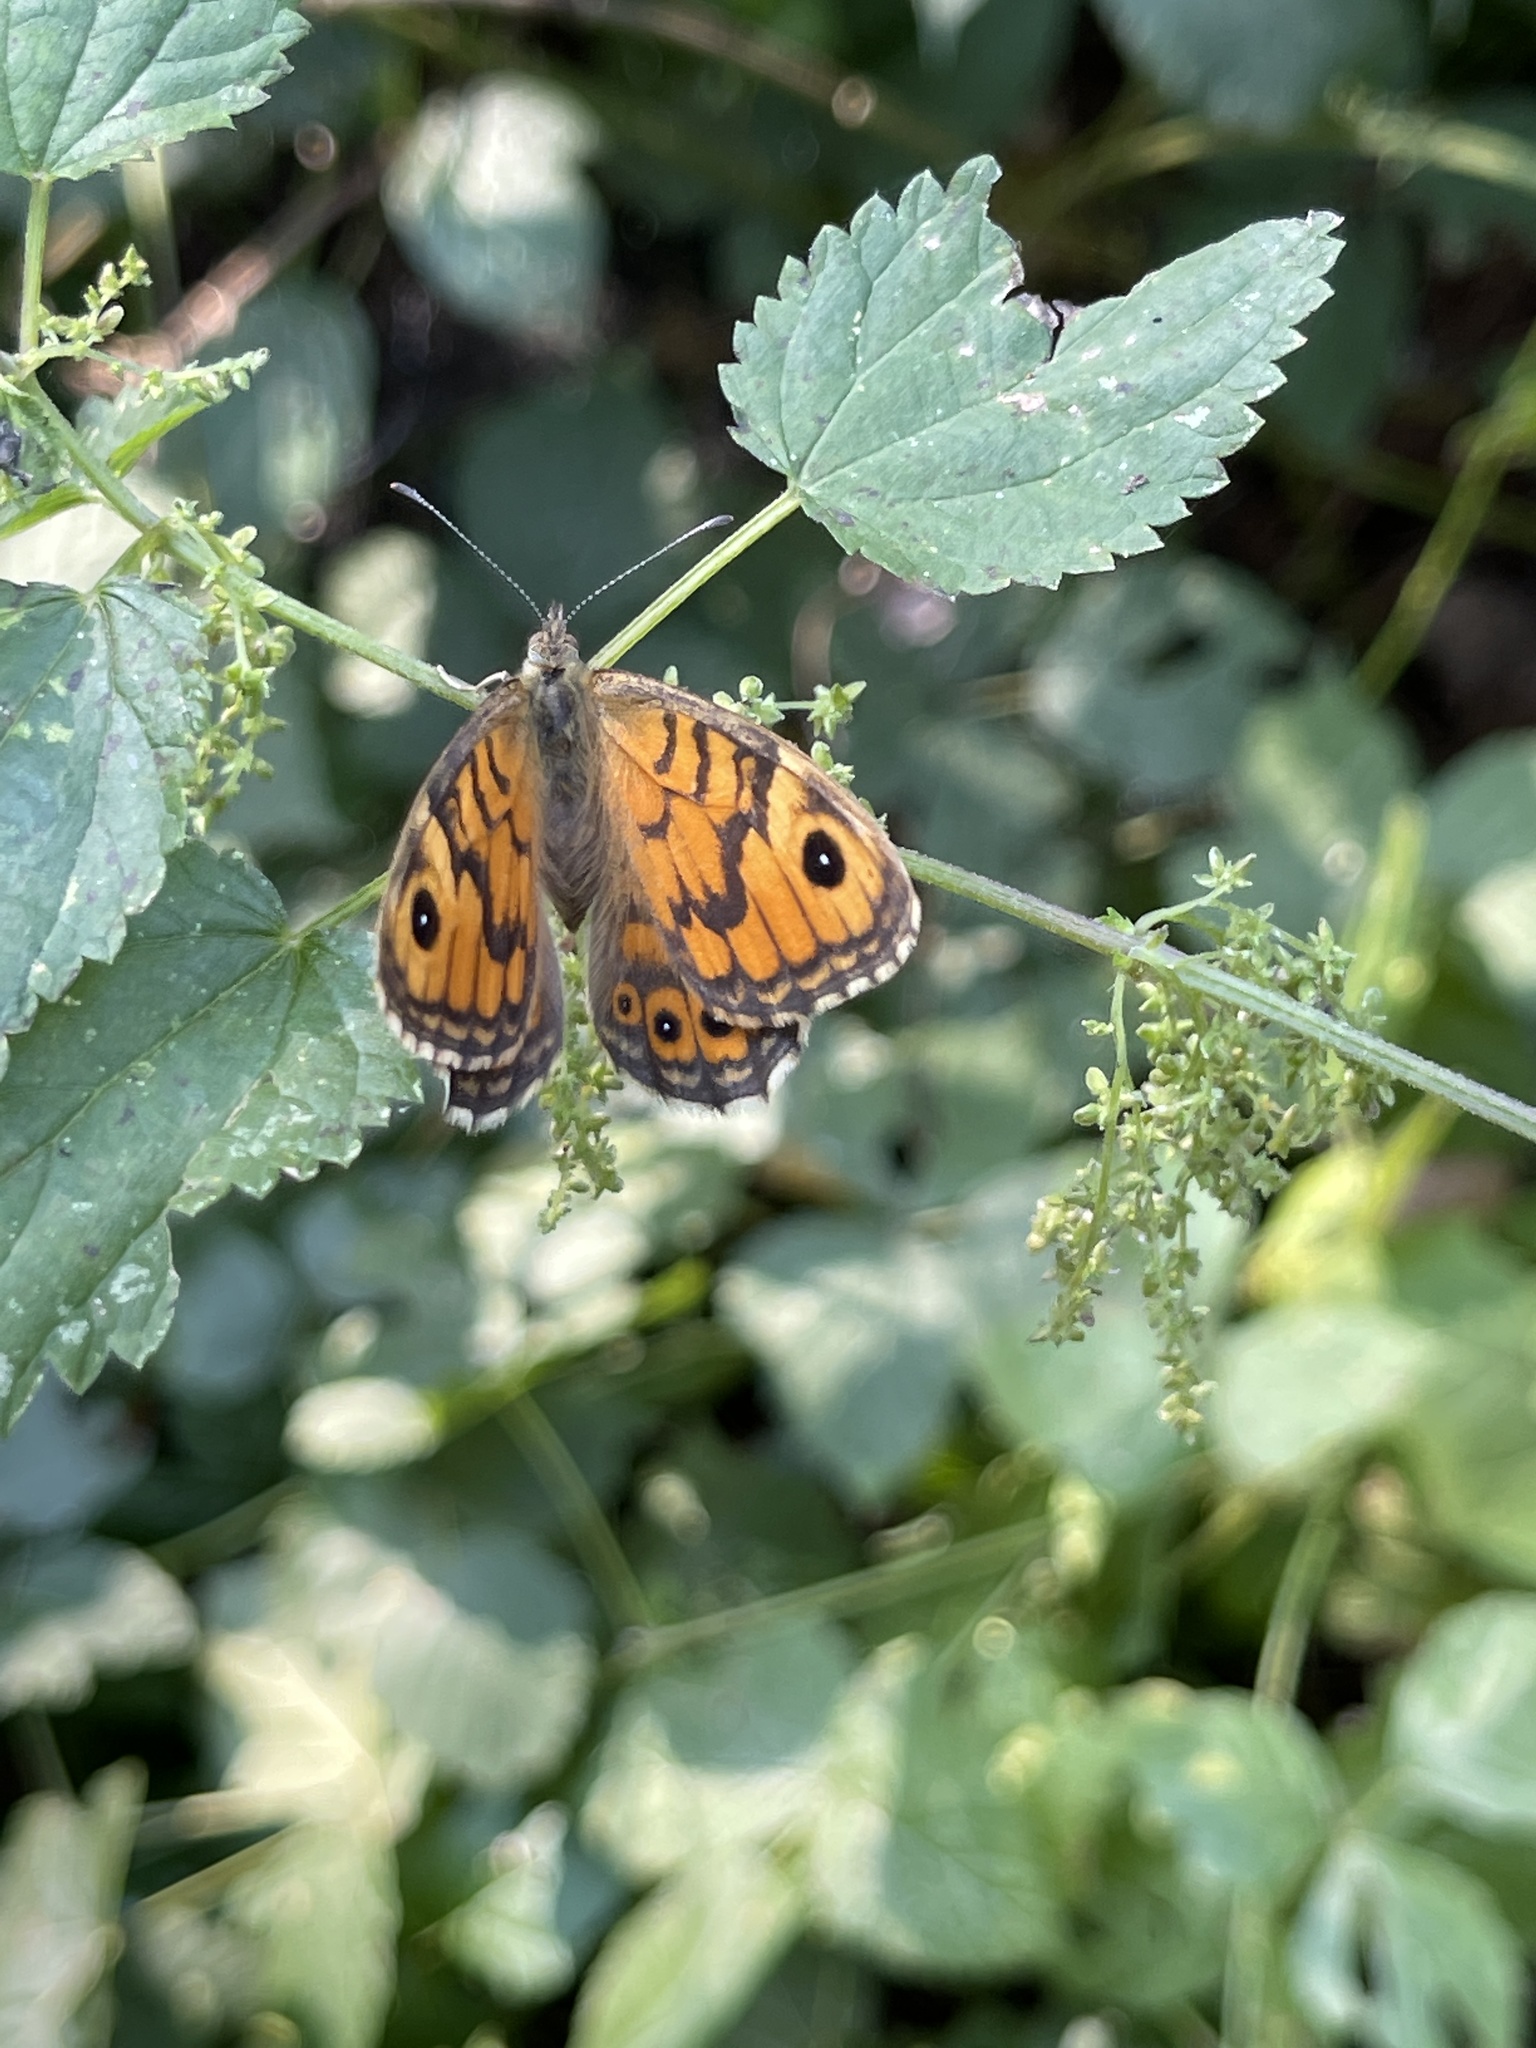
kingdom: Animalia
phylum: Arthropoda
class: Insecta
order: Lepidoptera
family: Nymphalidae
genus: Pararge
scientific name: Pararge Lasiommata megera
